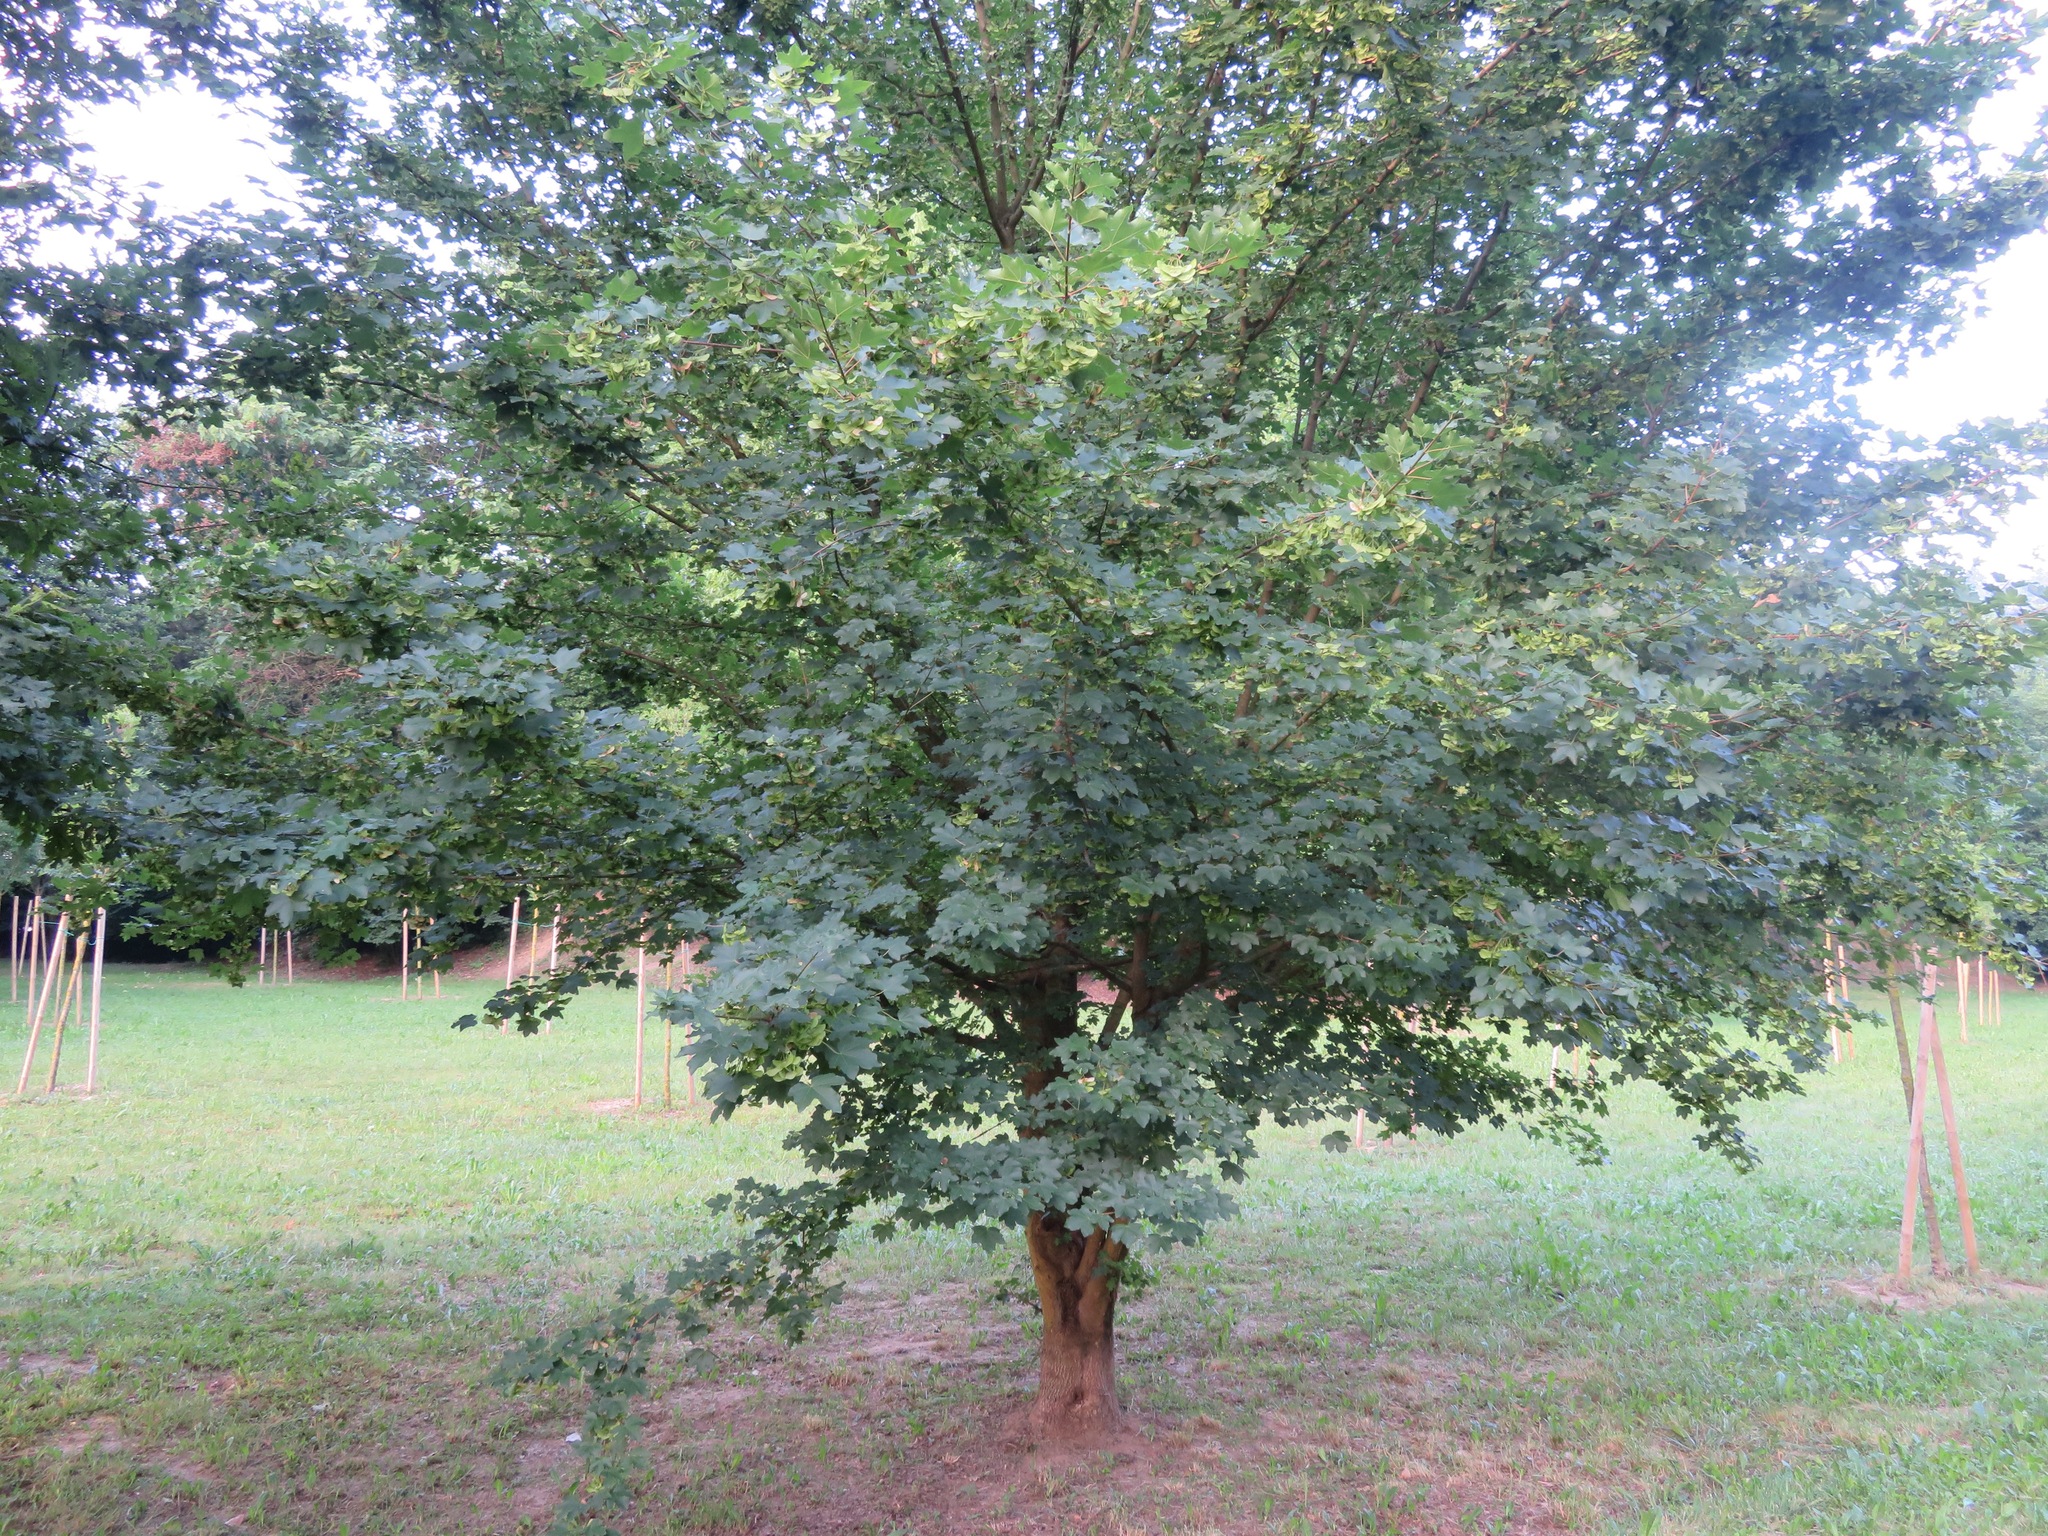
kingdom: Plantae
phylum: Tracheophyta
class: Magnoliopsida
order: Sapindales
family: Sapindaceae
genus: Acer
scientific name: Acer campestre
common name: Field maple
